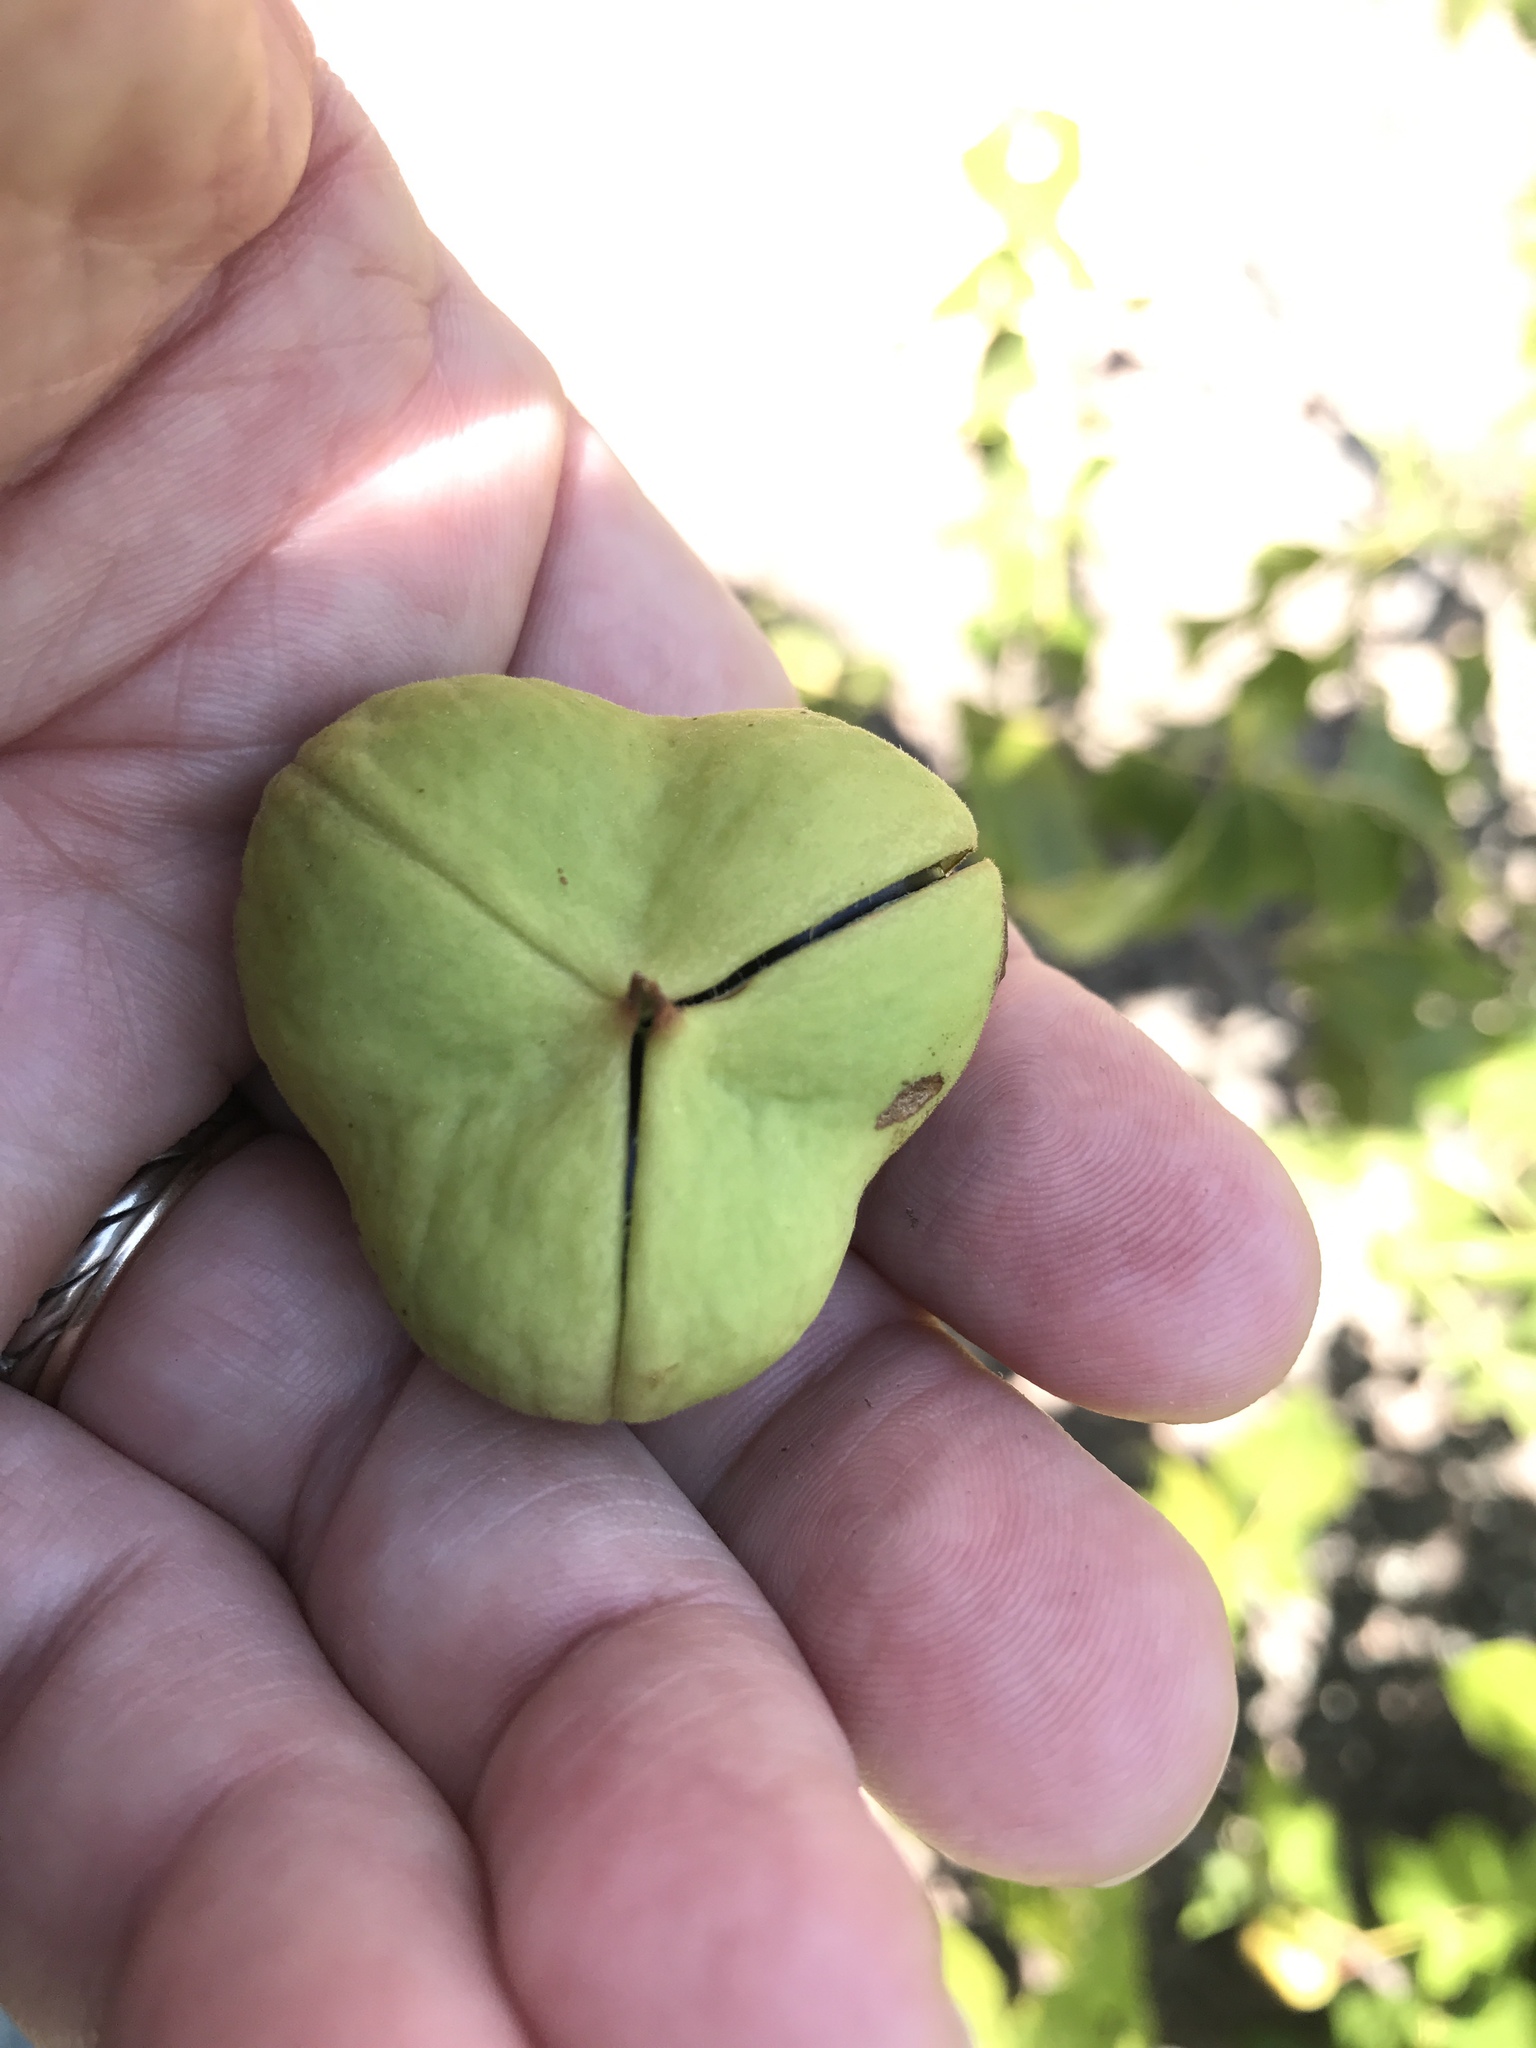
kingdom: Plantae
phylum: Tracheophyta
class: Magnoliopsida
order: Sapindales
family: Sapindaceae
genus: Ungnadia
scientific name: Ungnadia speciosa
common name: Texas-buckeye
